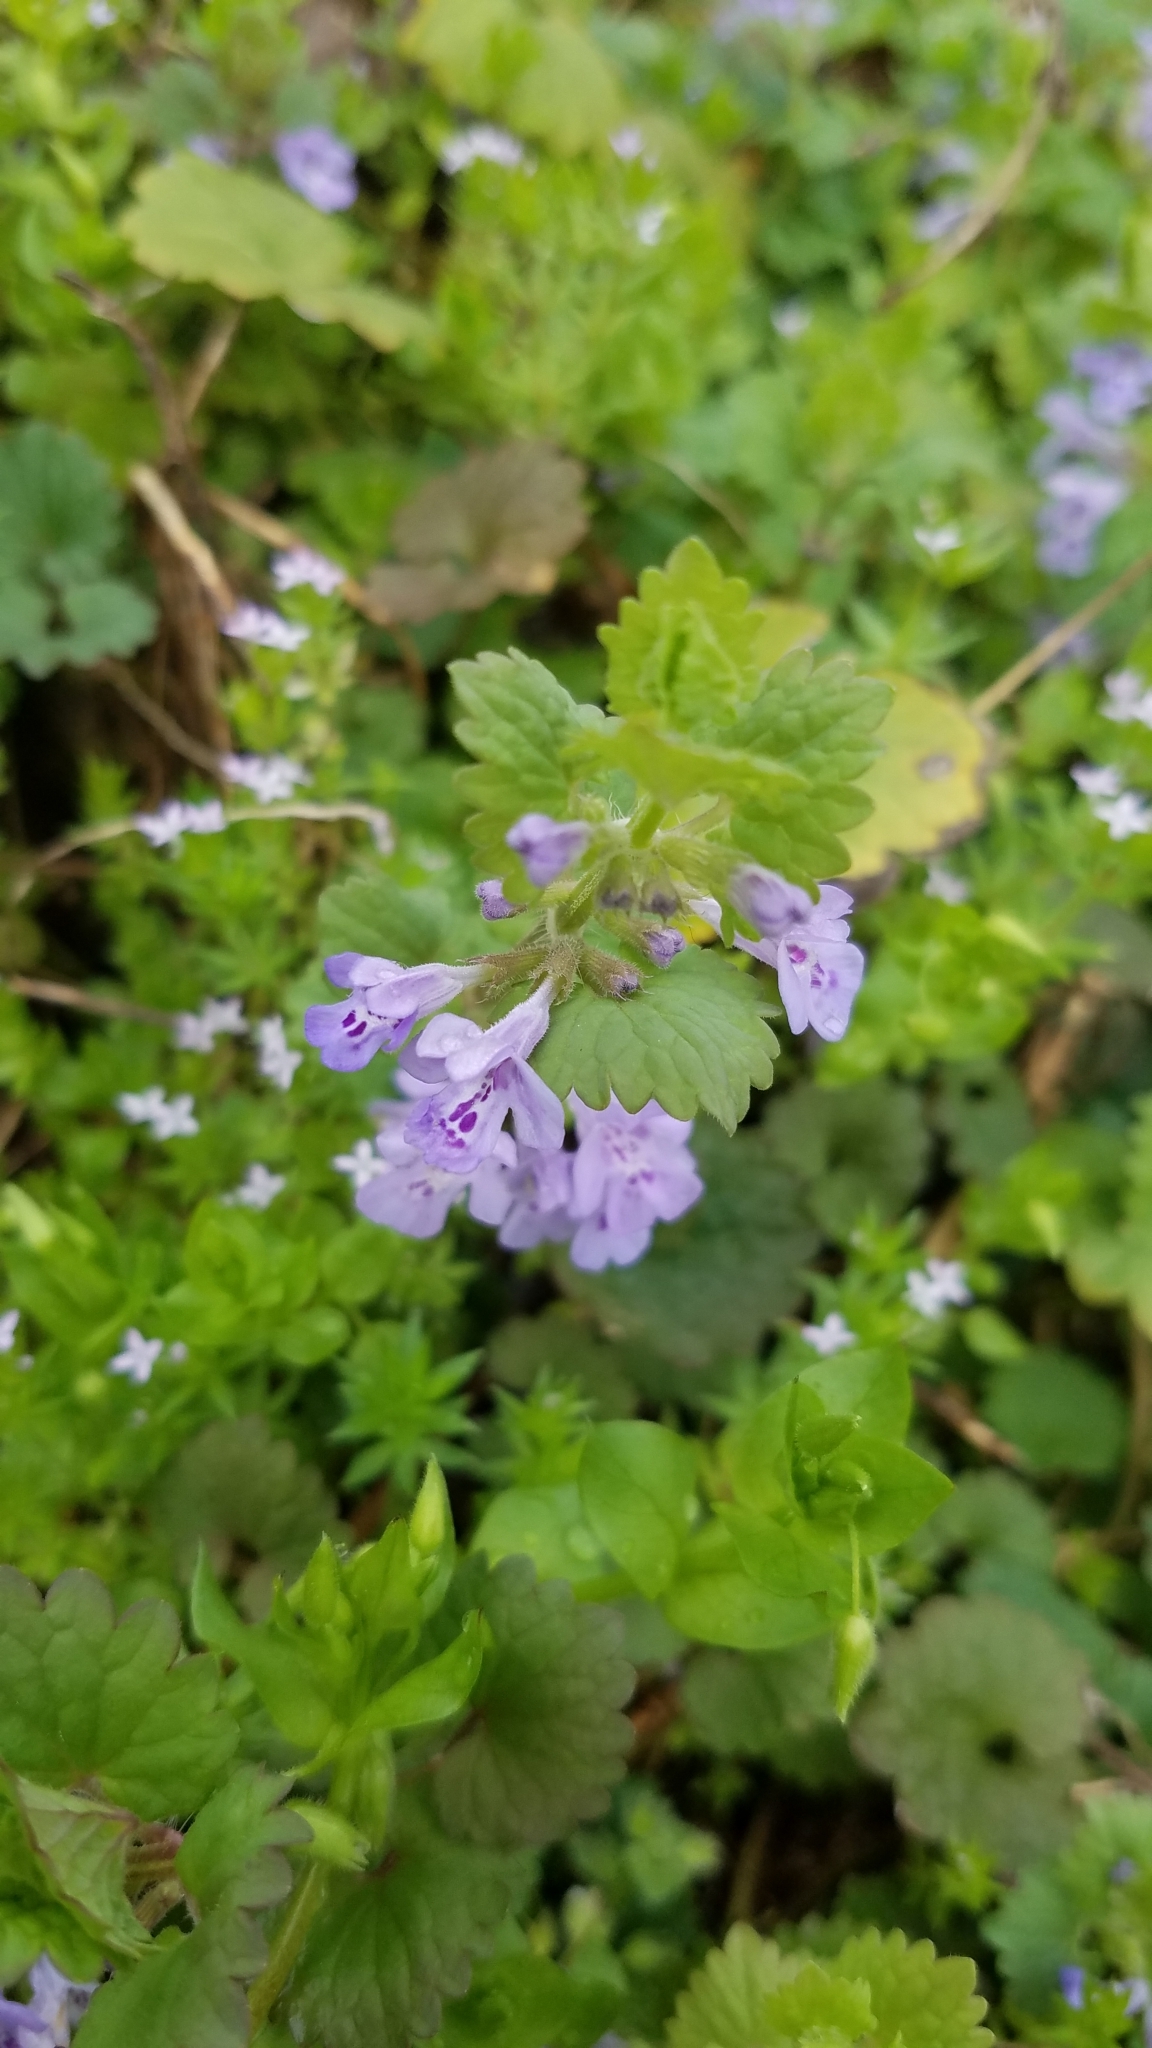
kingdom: Plantae
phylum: Tracheophyta
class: Magnoliopsida
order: Lamiales
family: Lamiaceae
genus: Glechoma
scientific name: Glechoma hederacea
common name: Ground ivy
